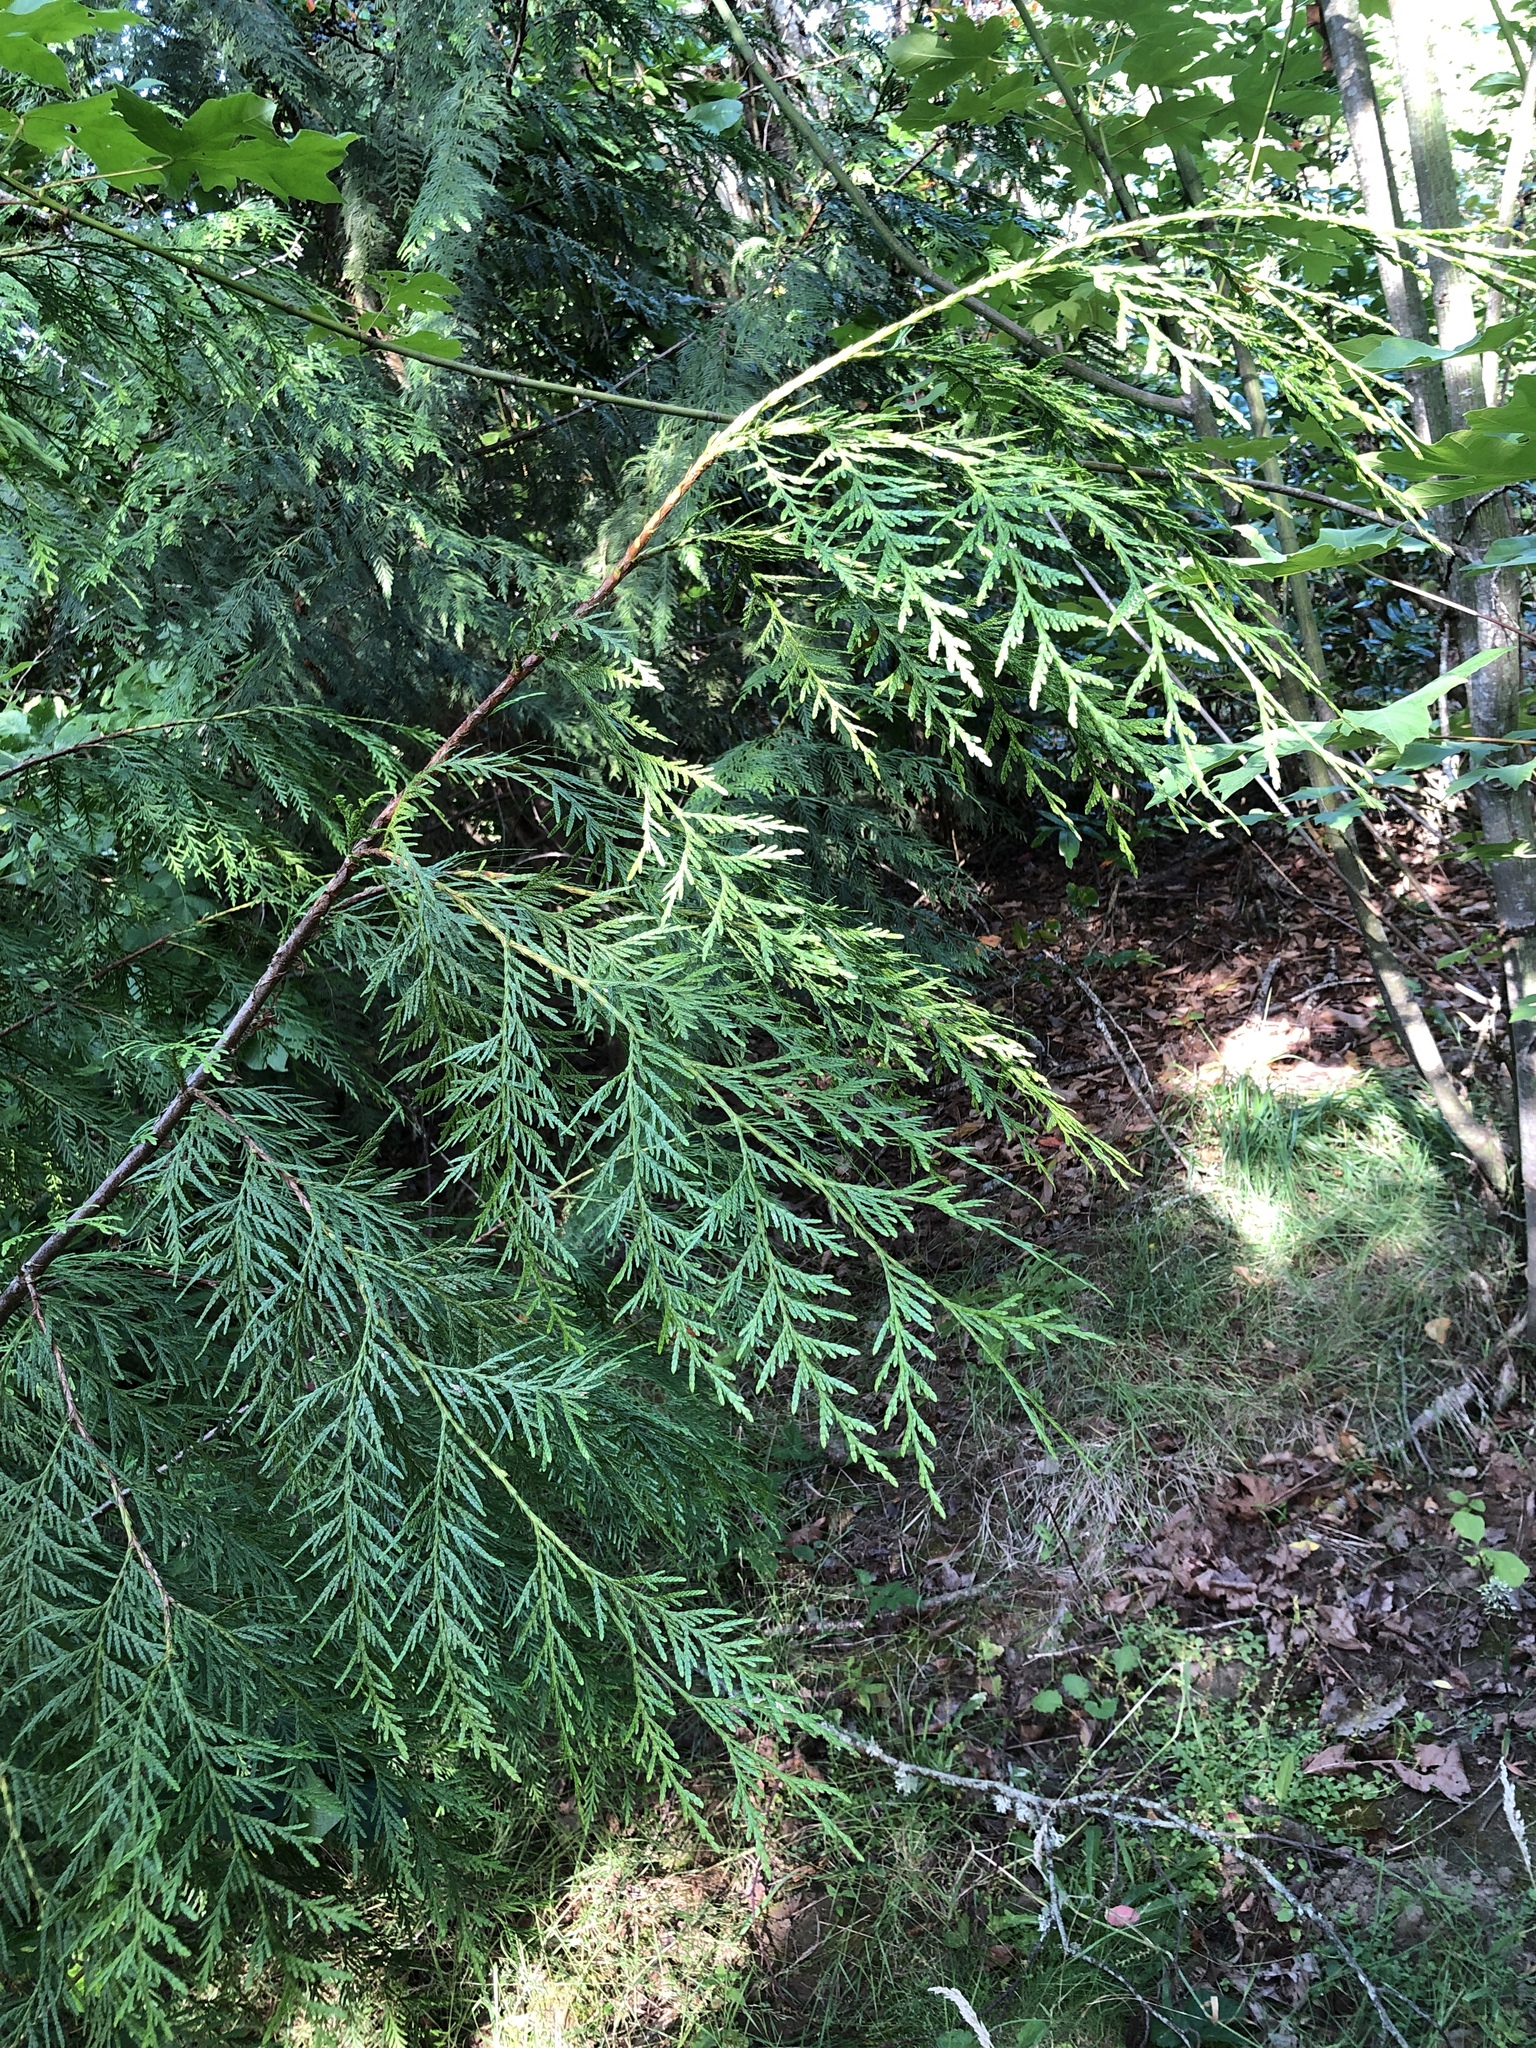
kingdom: Plantae
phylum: Tracheophyta
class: Pinopsida
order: Pinales
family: Cupressaceae
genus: Thuja
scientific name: Thuja plicata
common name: Western red-cedar
